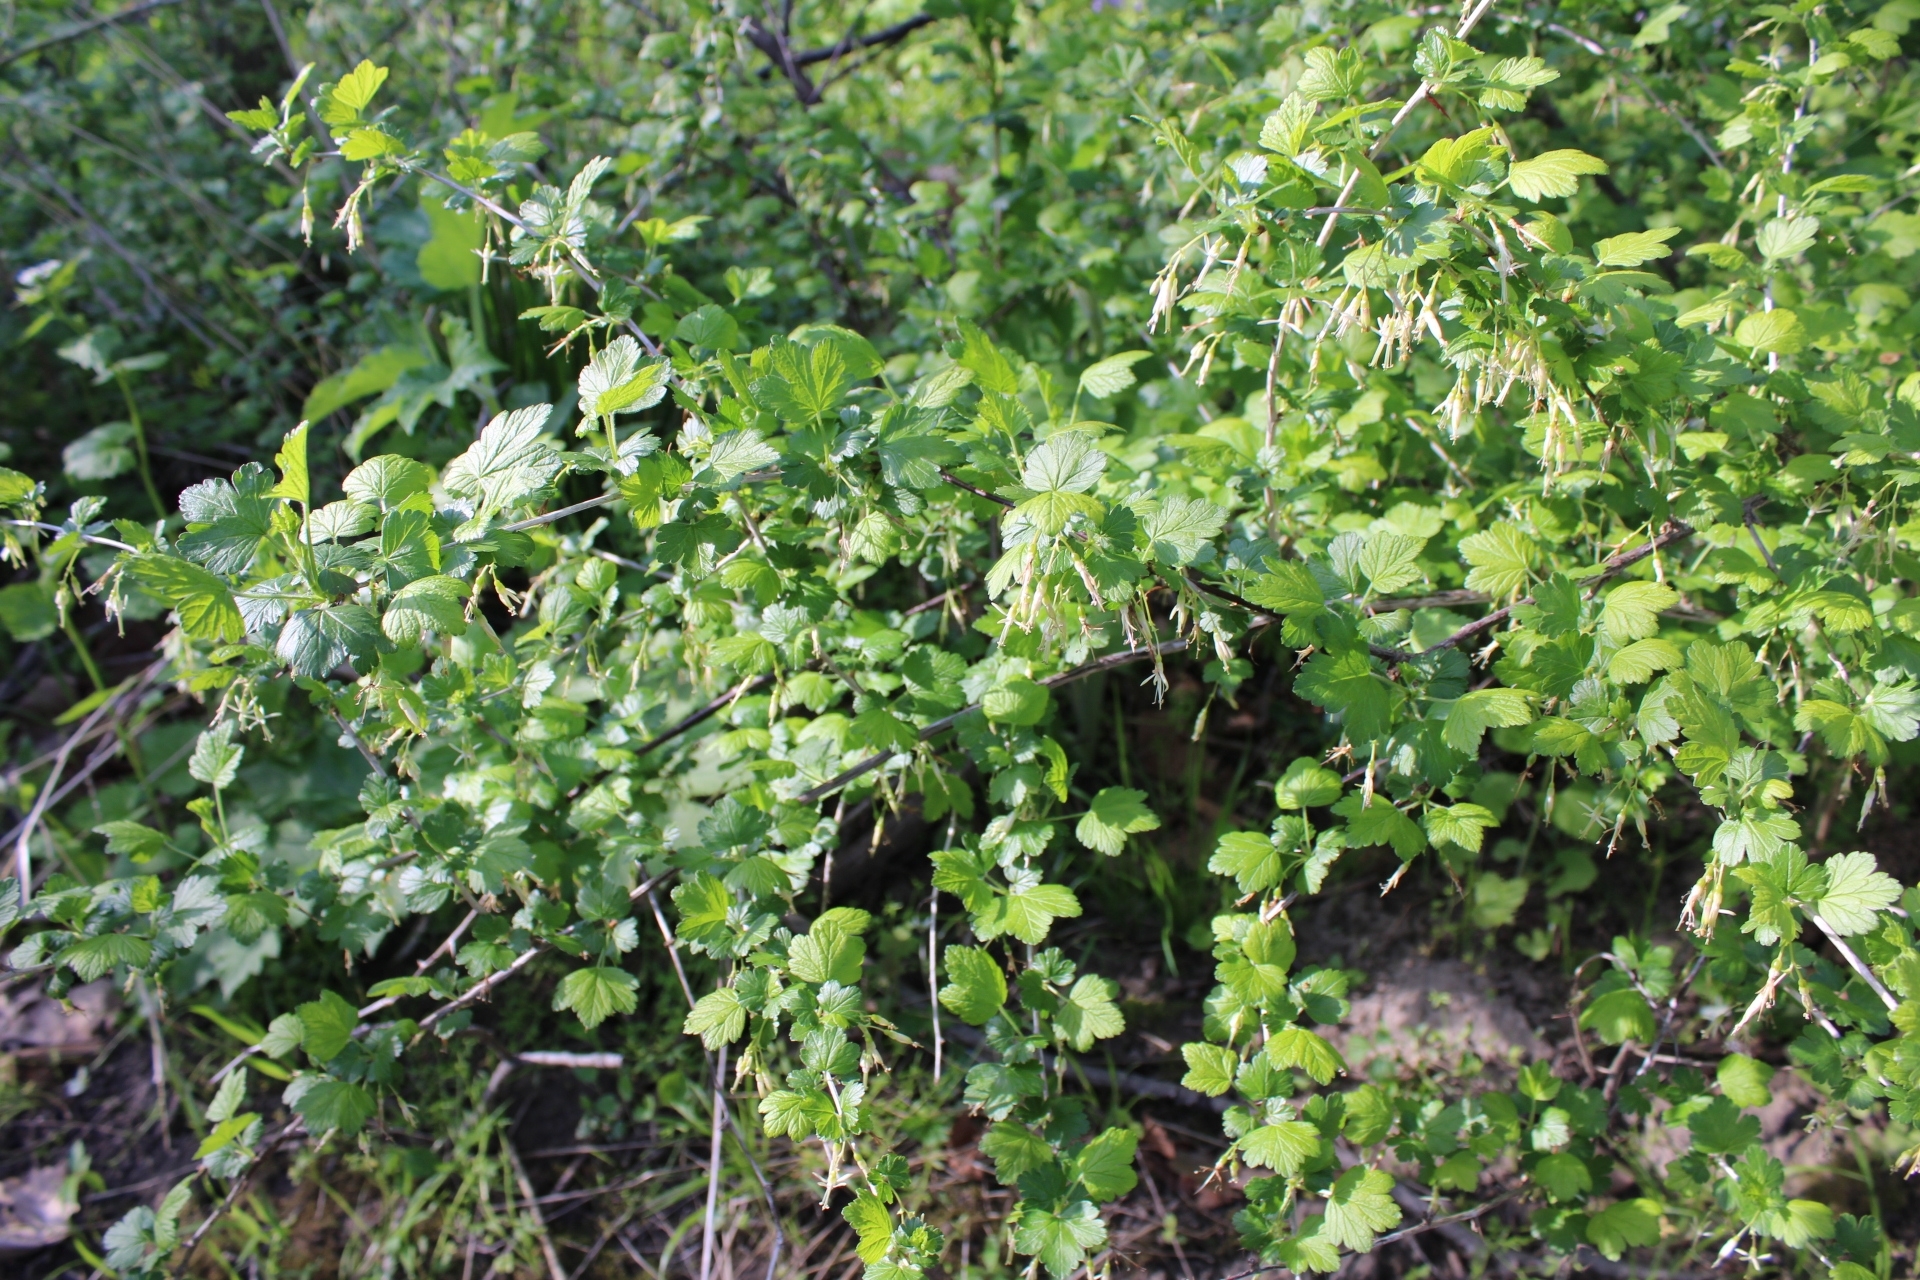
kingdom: Plantae
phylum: Tracheophyta
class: Magnoliopsida
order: Saxifragales
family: Grossulariaceae
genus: Ribes
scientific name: Ribes missouriense
